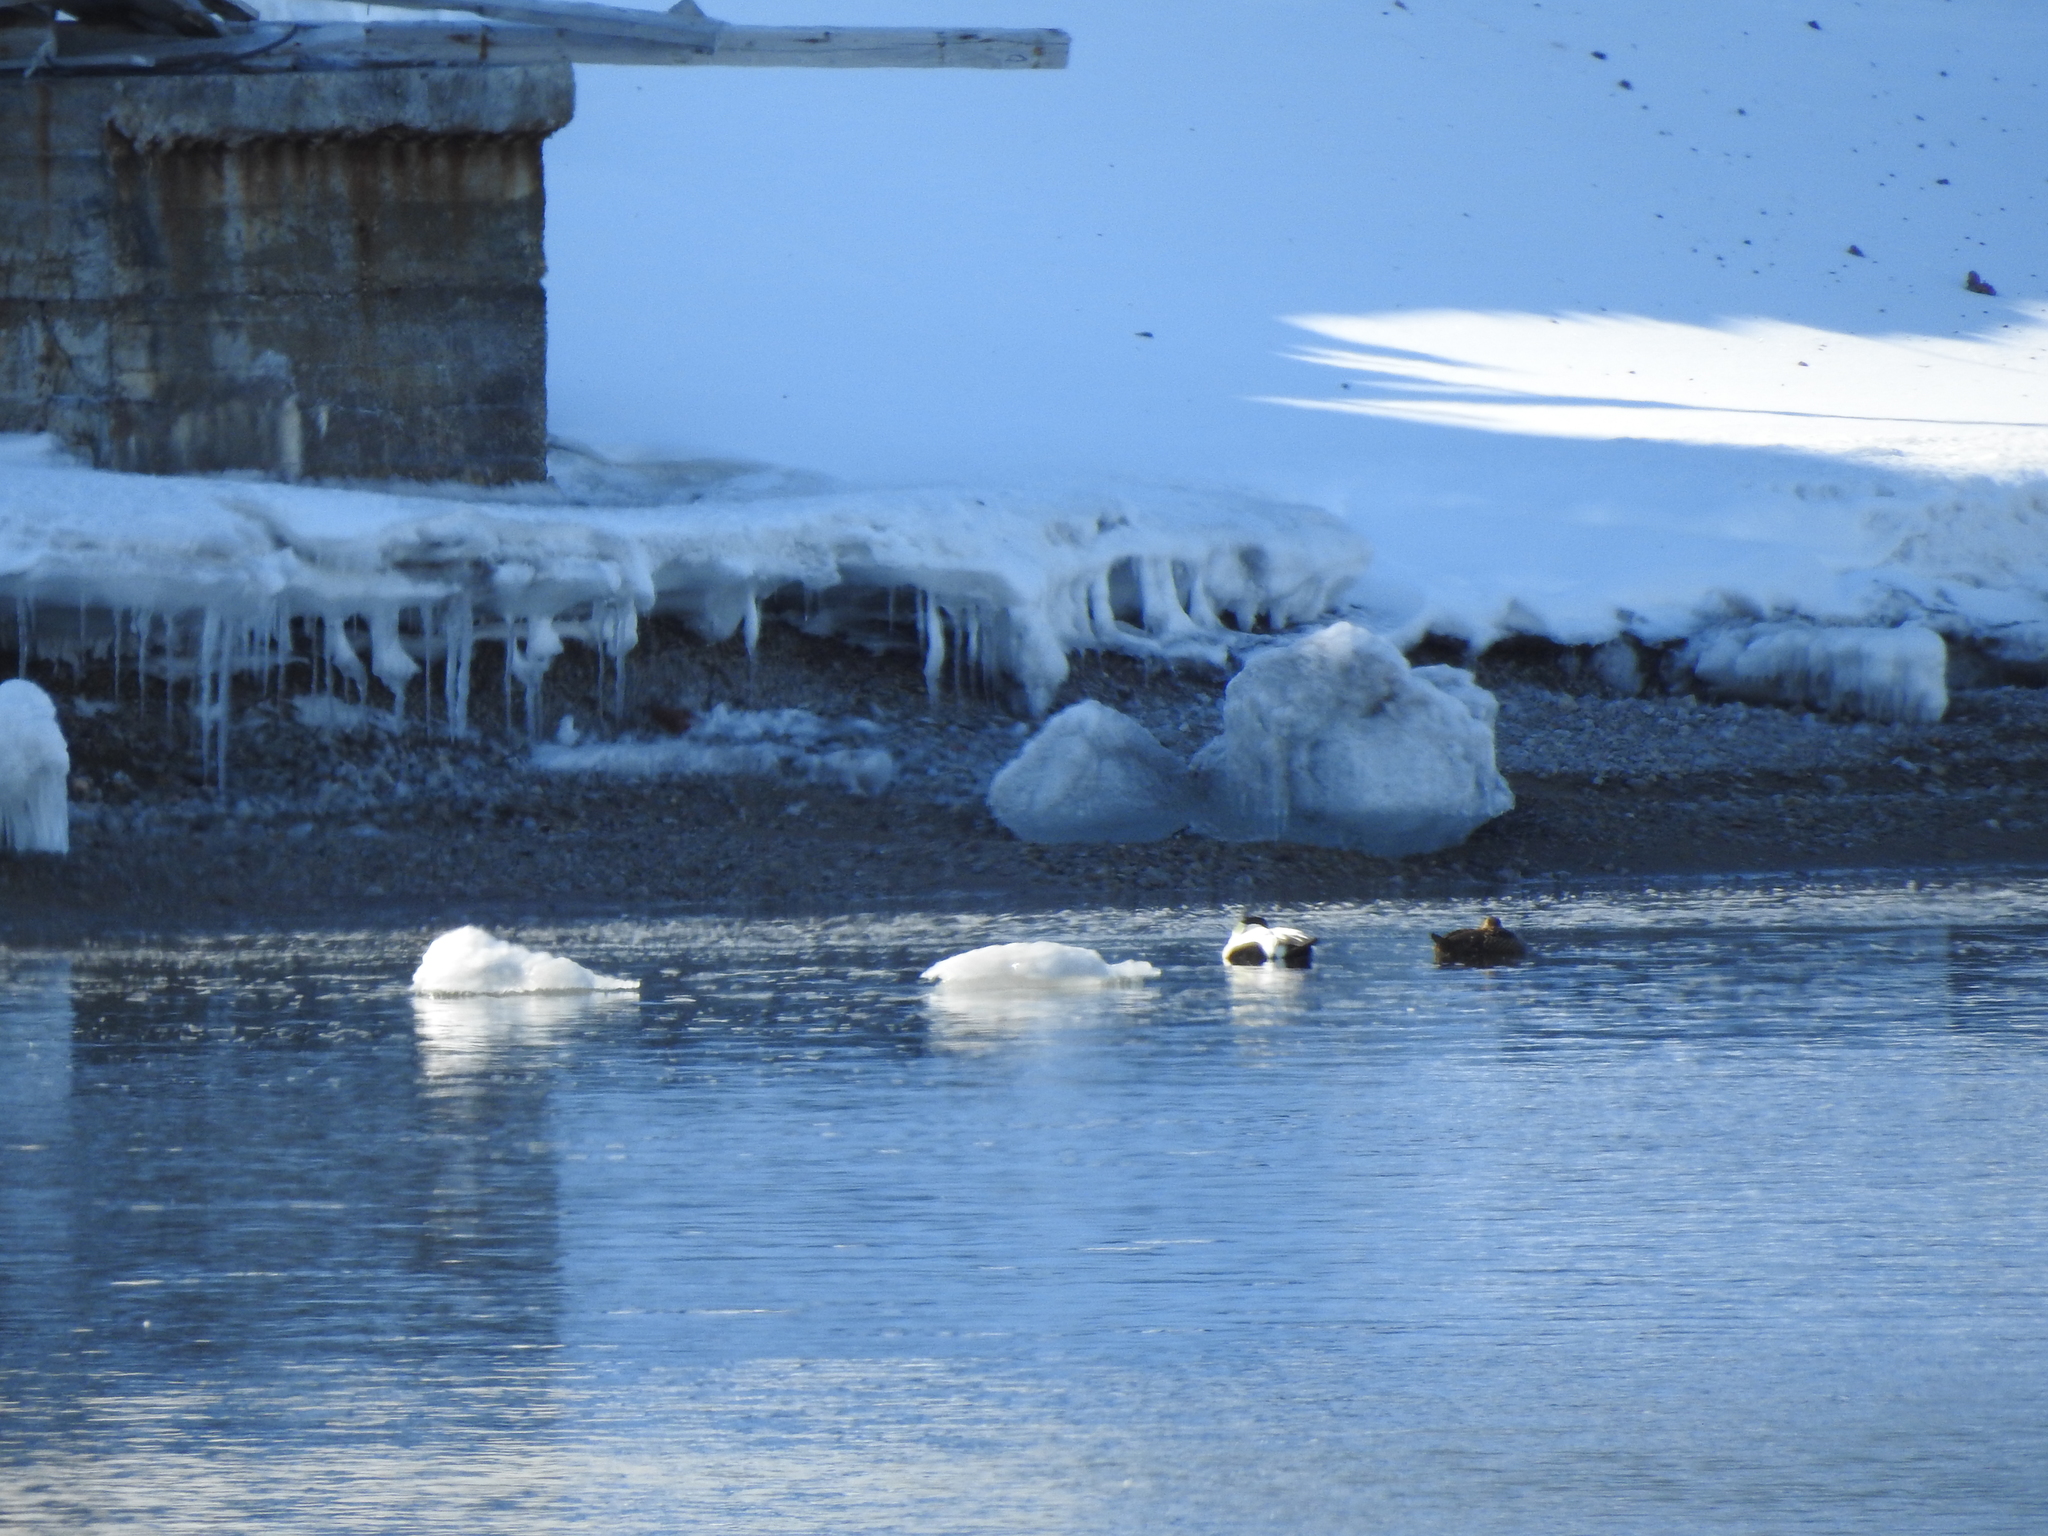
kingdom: Animalia
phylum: Chordata
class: Aves
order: Anseriformes
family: Anatidae
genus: Somateria
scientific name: Somateria mollissima
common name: Common eider
